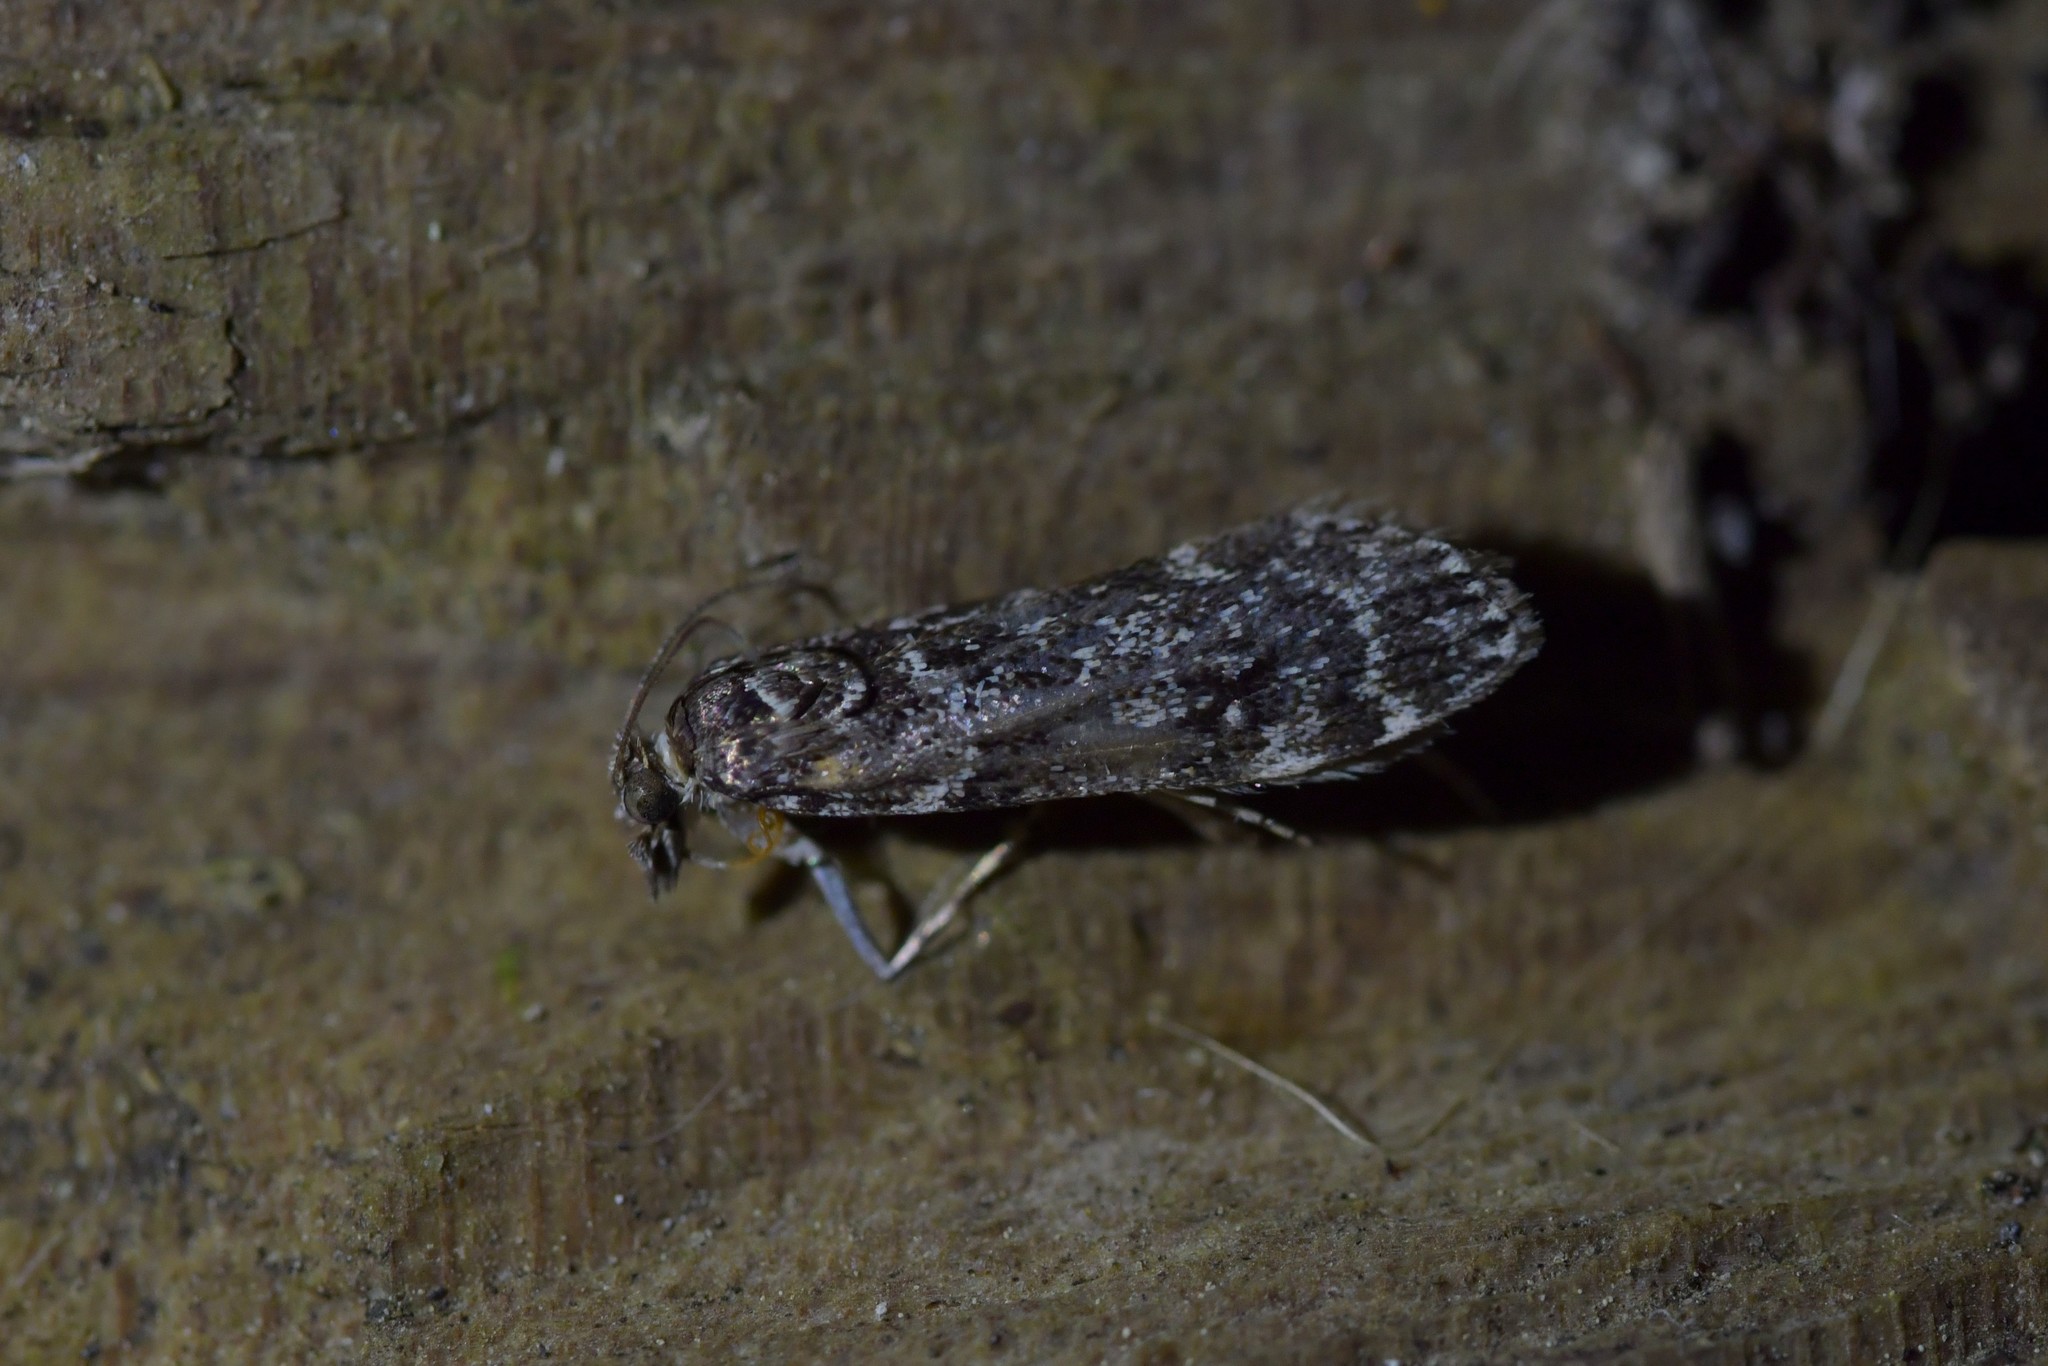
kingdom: Animalia
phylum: Arthropoda
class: Insecta
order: Lepidoptera
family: Crambidae
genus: Eudonia
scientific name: Eudonia philerga
